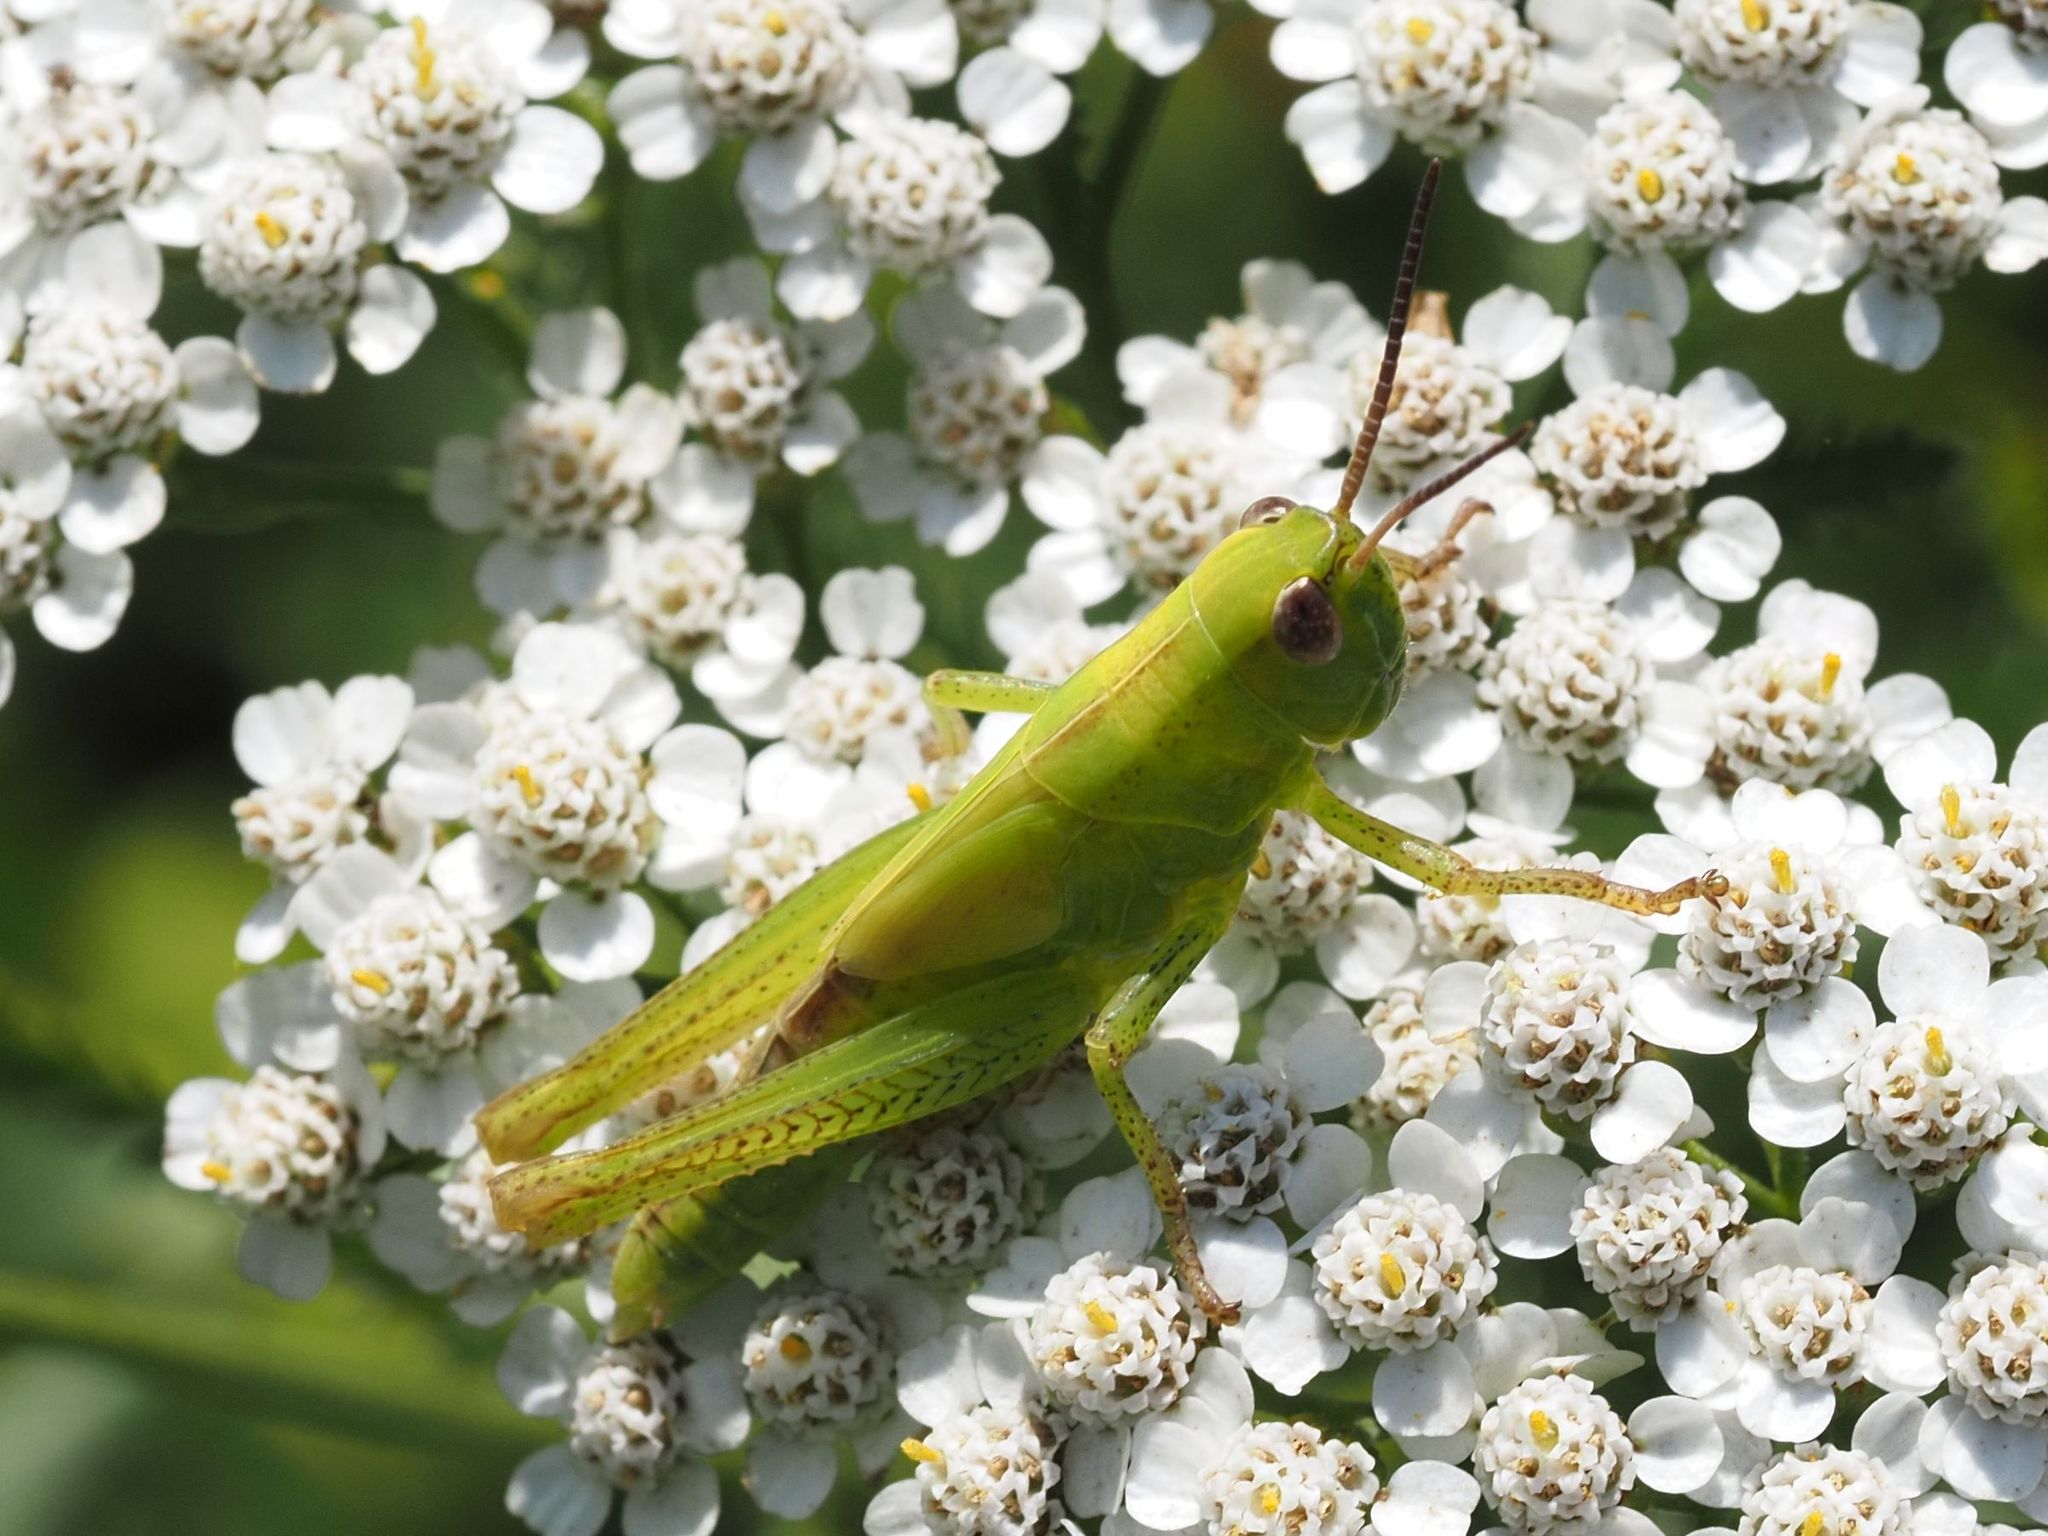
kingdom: Animalia
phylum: Arthropoda
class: Insecta
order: Orthoptera
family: Acrididae
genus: Mecostethus
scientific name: Mecostethus parapleurus
